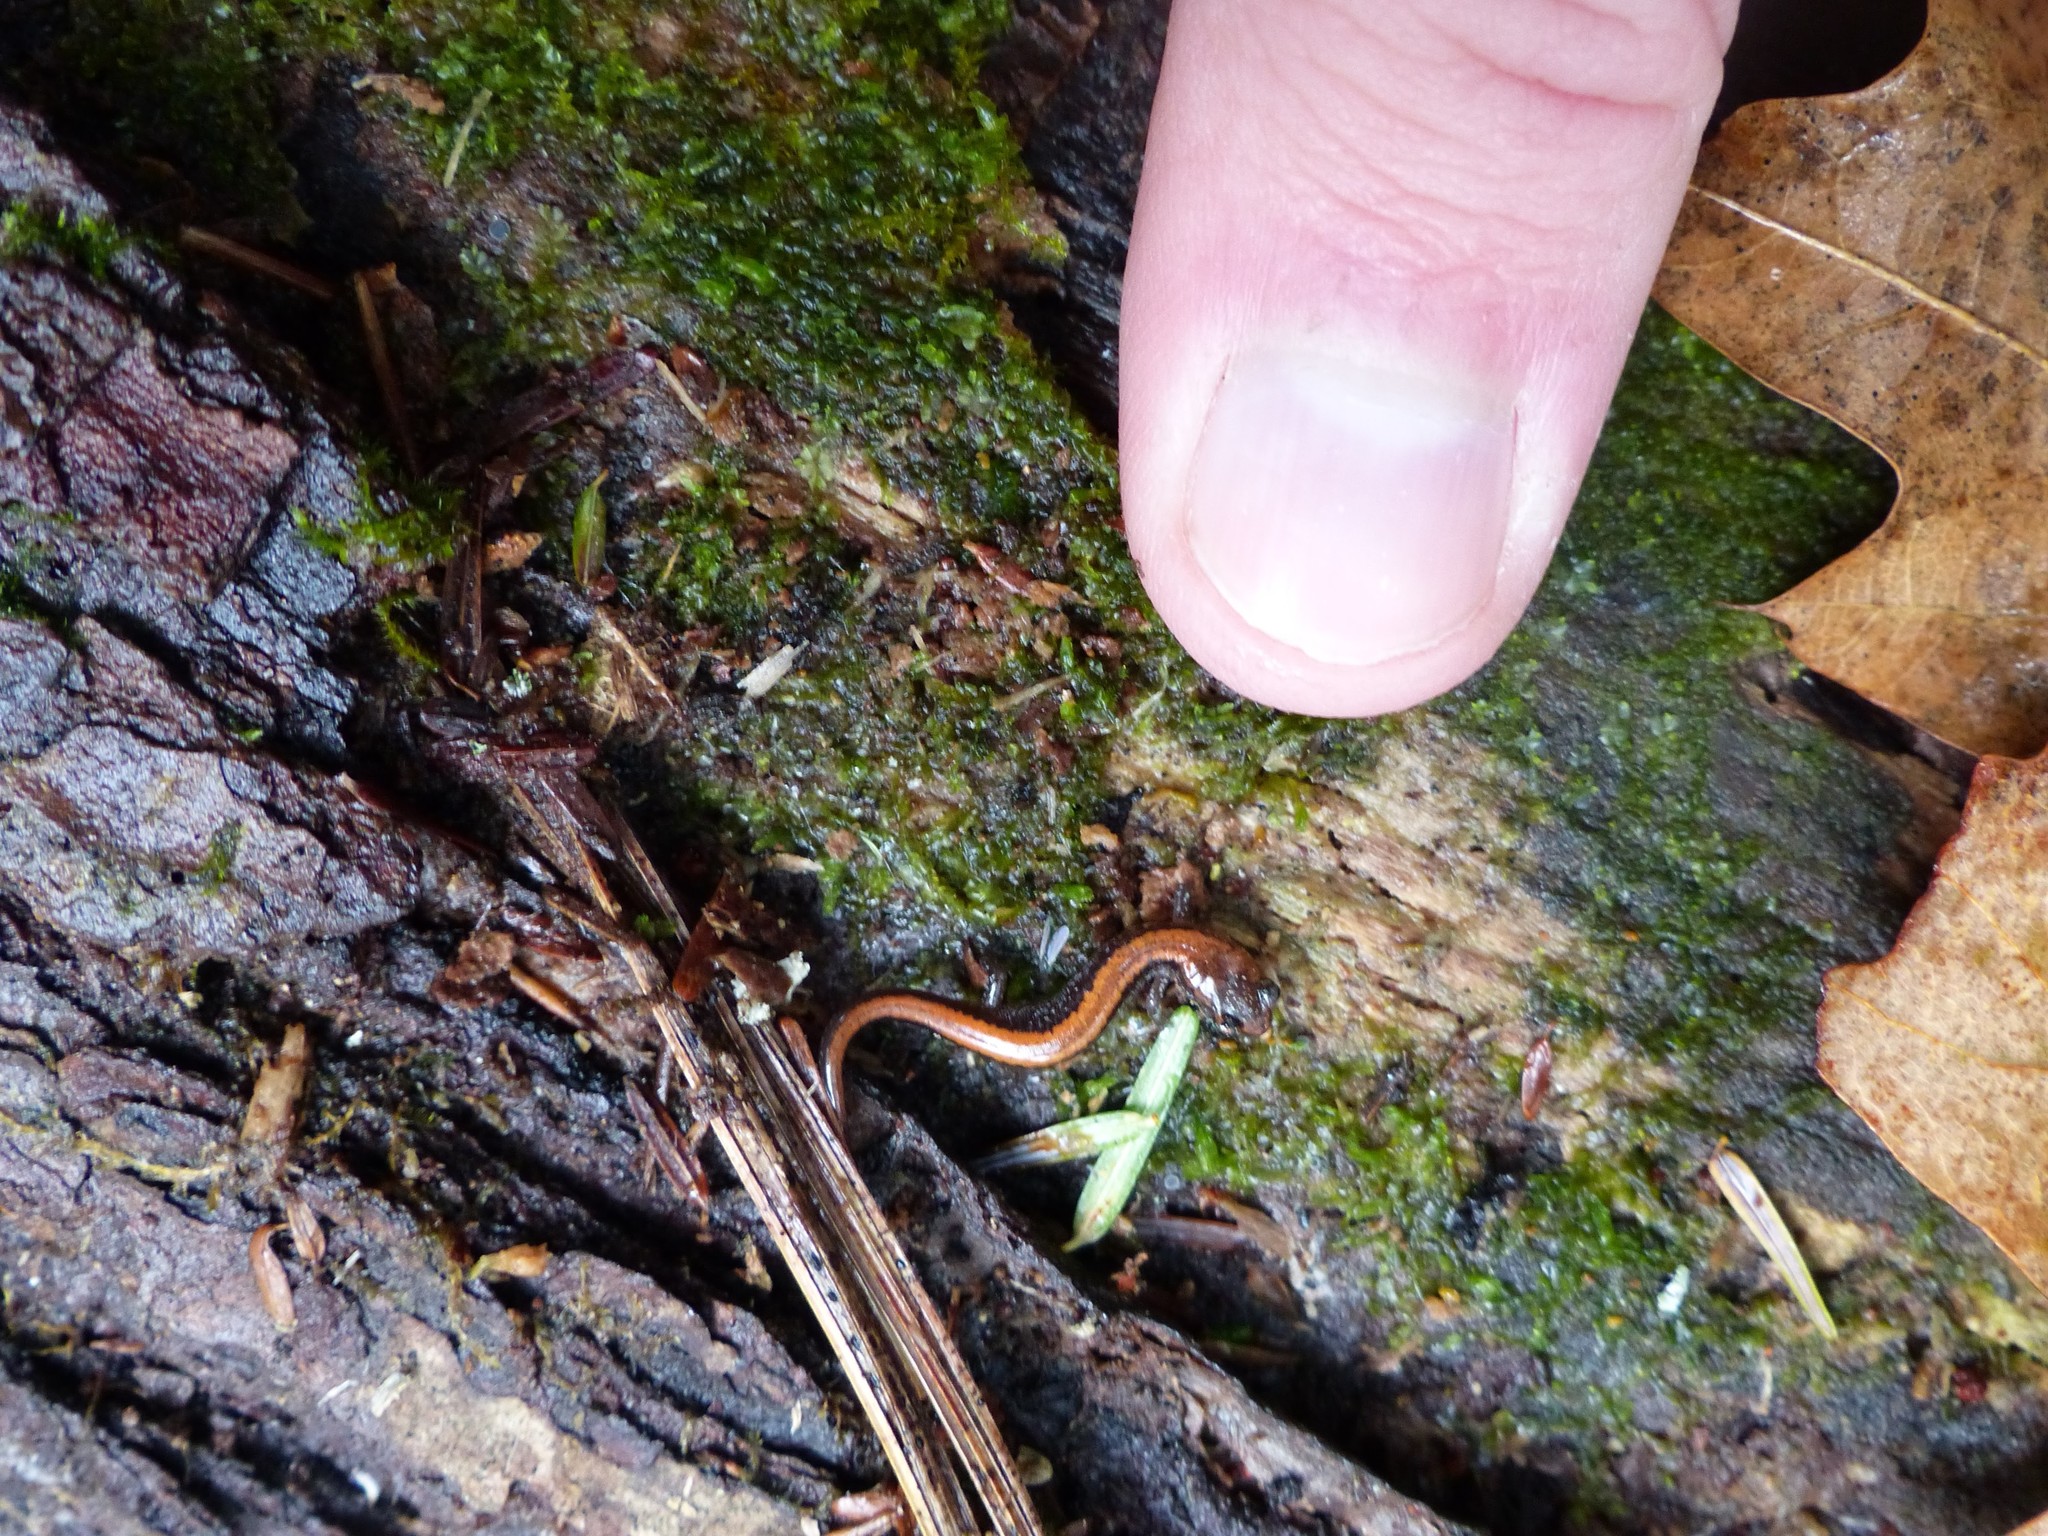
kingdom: Animalia
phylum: Chordata
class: Amphibia
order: Caudata
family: Plethodontidae
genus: Plethodon
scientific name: Plethodon cinereus
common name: Redback salamander
